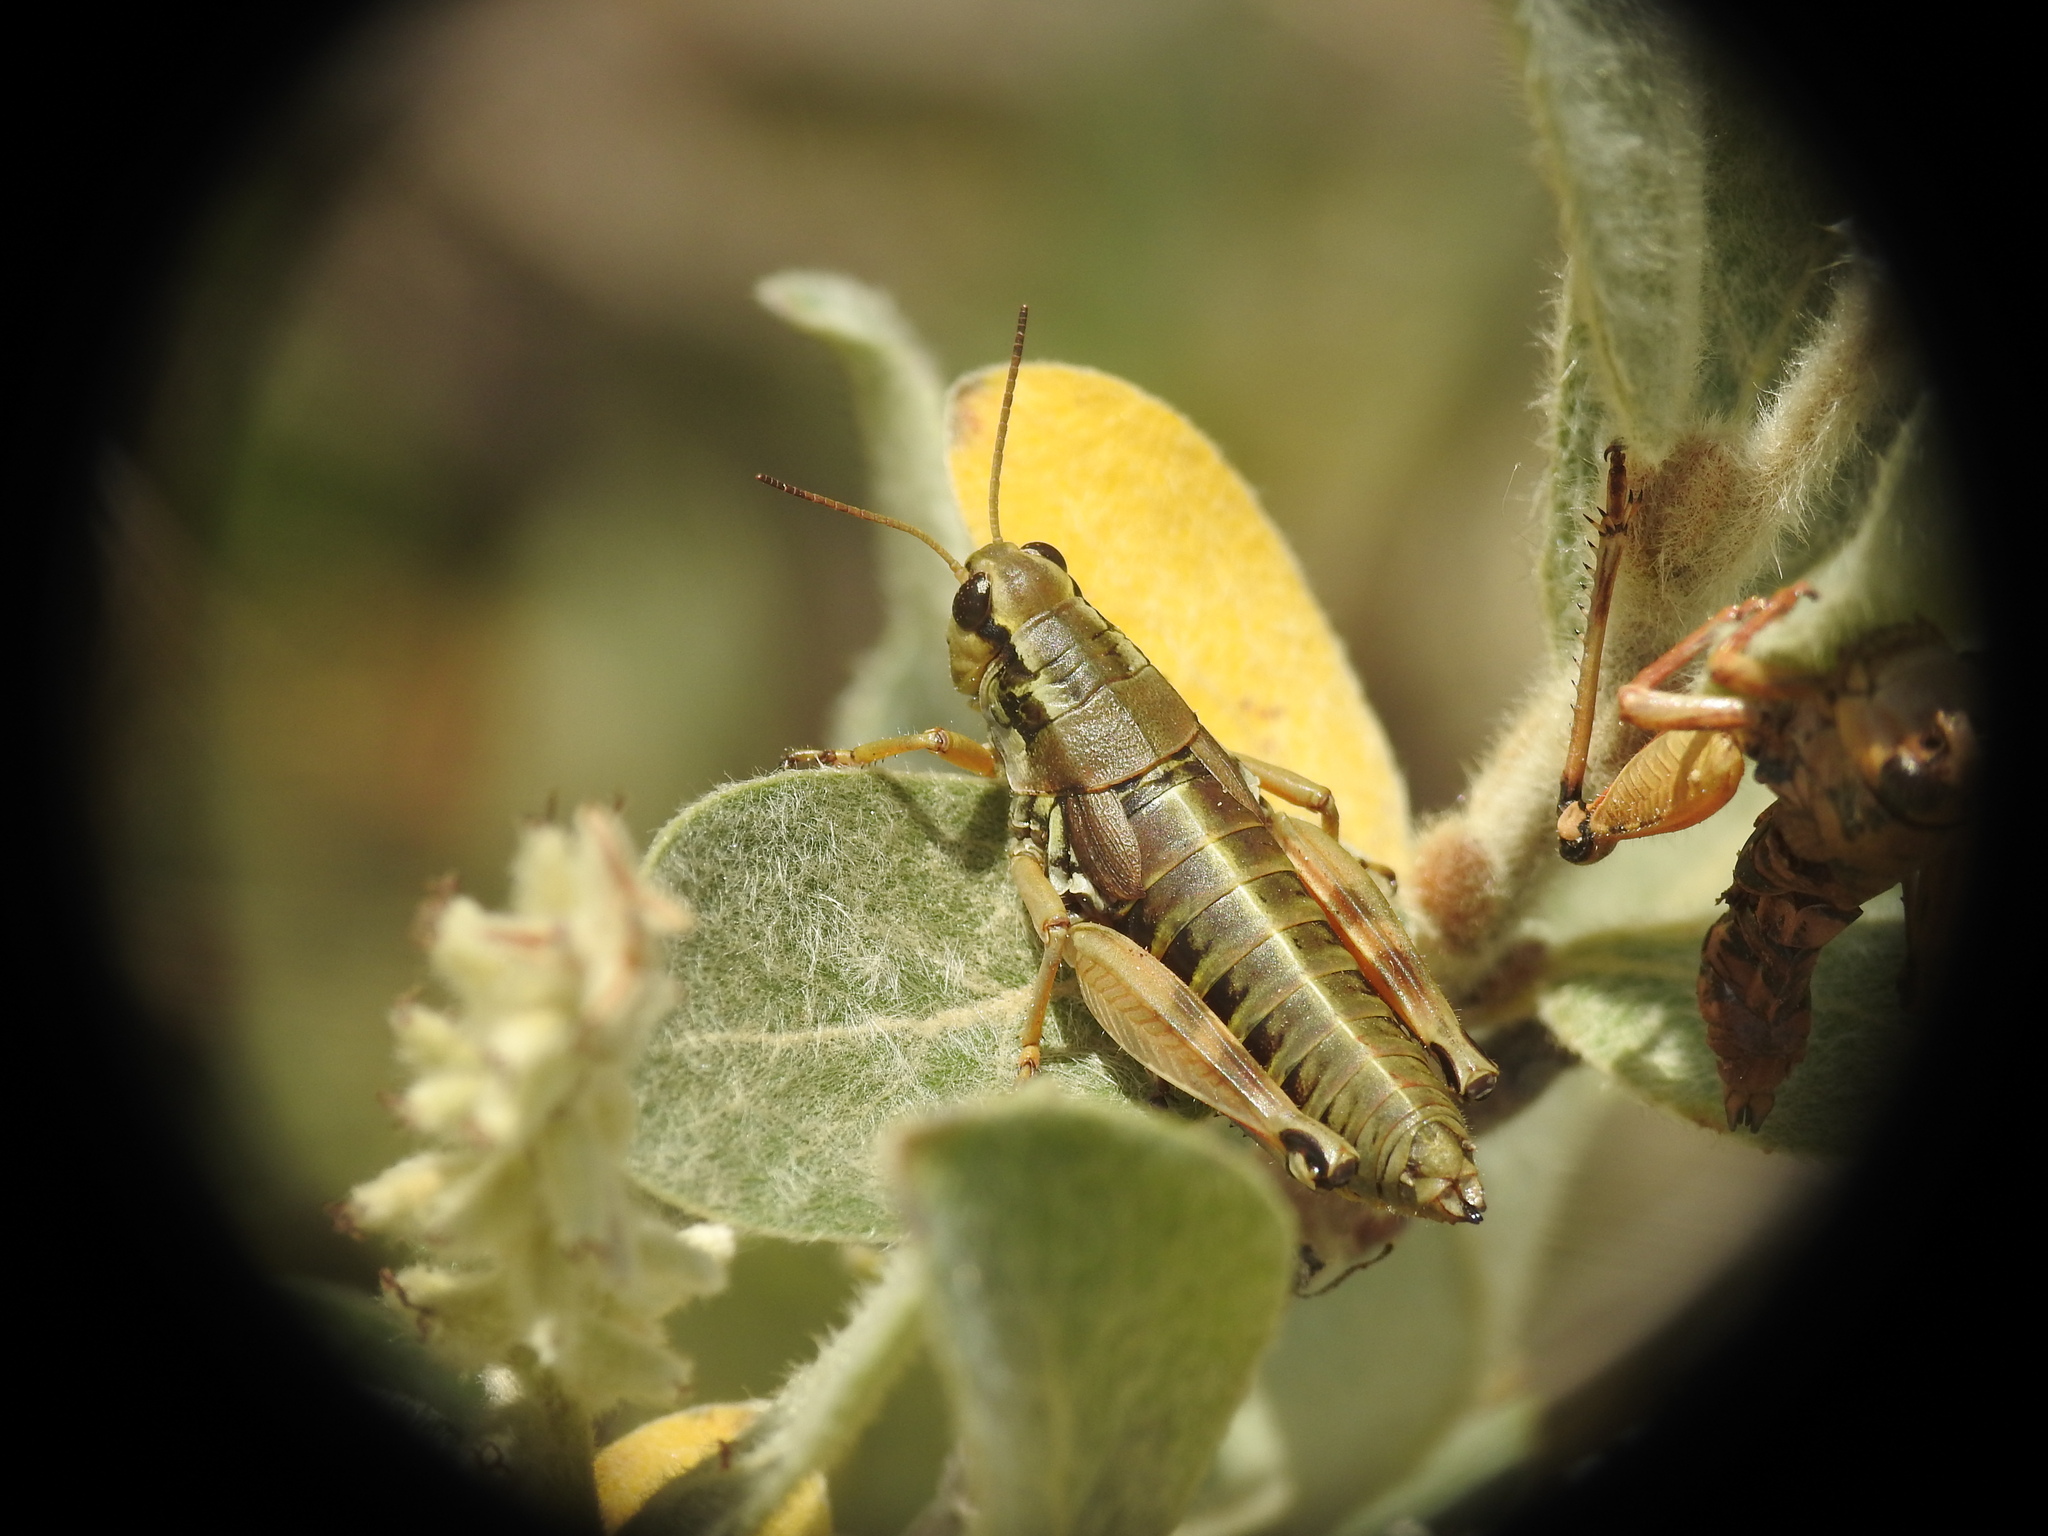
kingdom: Animalia
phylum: Arthropoda
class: Insecta
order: Orthoptera
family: Acrididae
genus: Podisma
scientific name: Podisma pedestris
